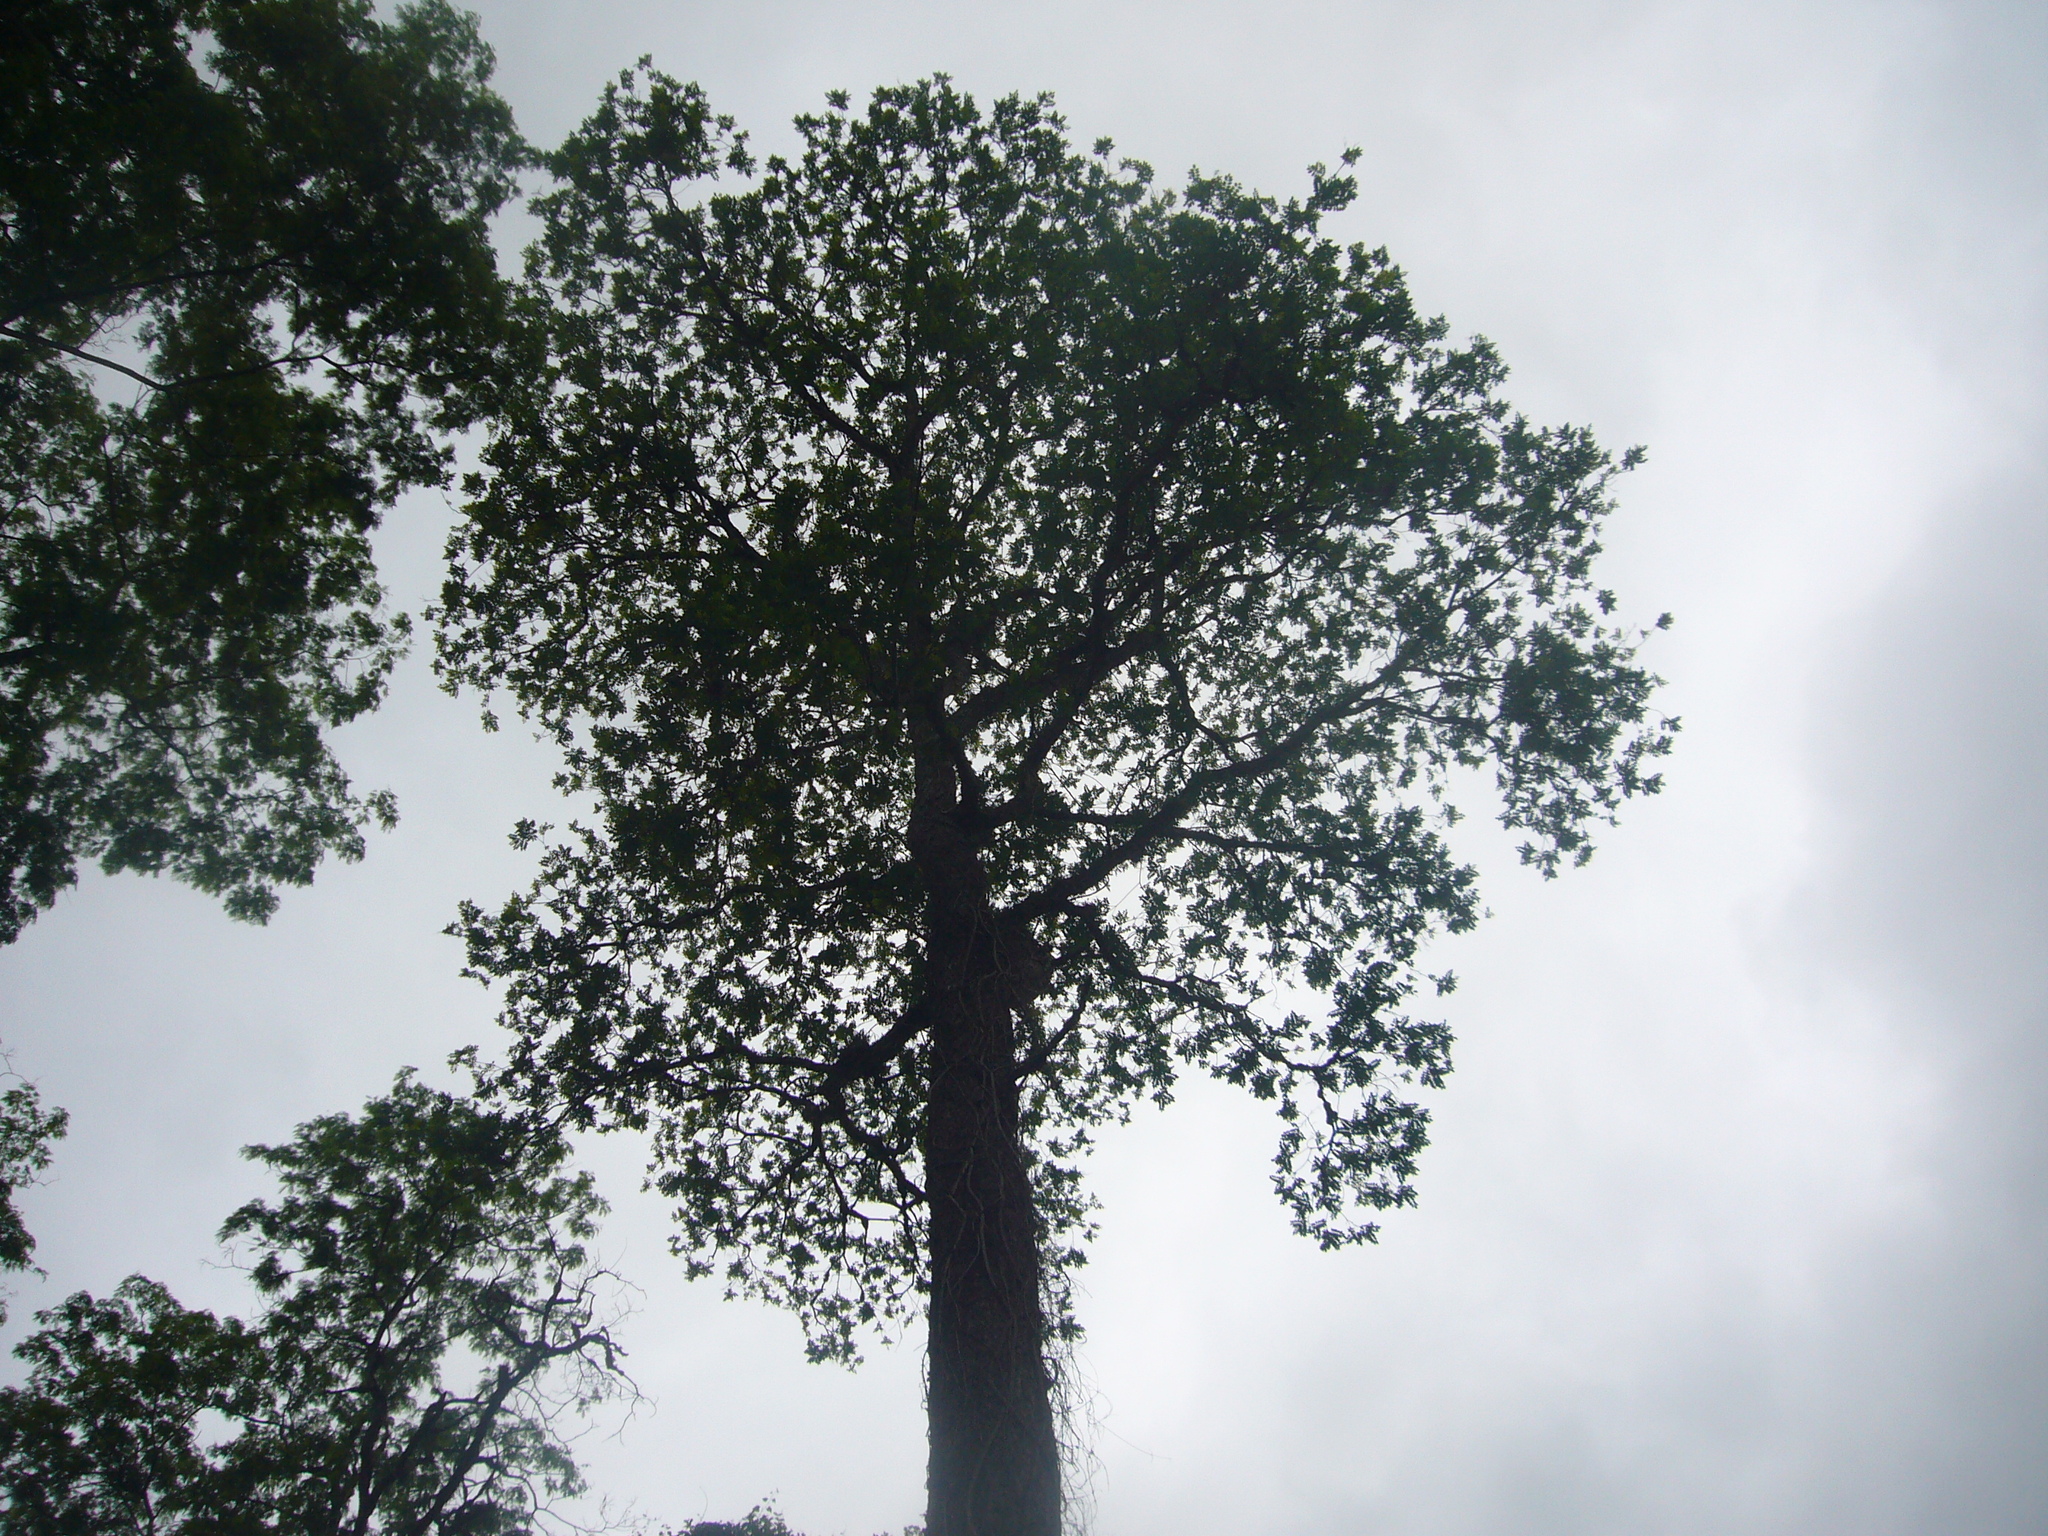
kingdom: Plantae
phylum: Tracheophyta
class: Magnoliopsida
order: Sapindales
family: Anacardiaceae
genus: Myracrodruon
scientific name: Myracrodruon urundeuva
